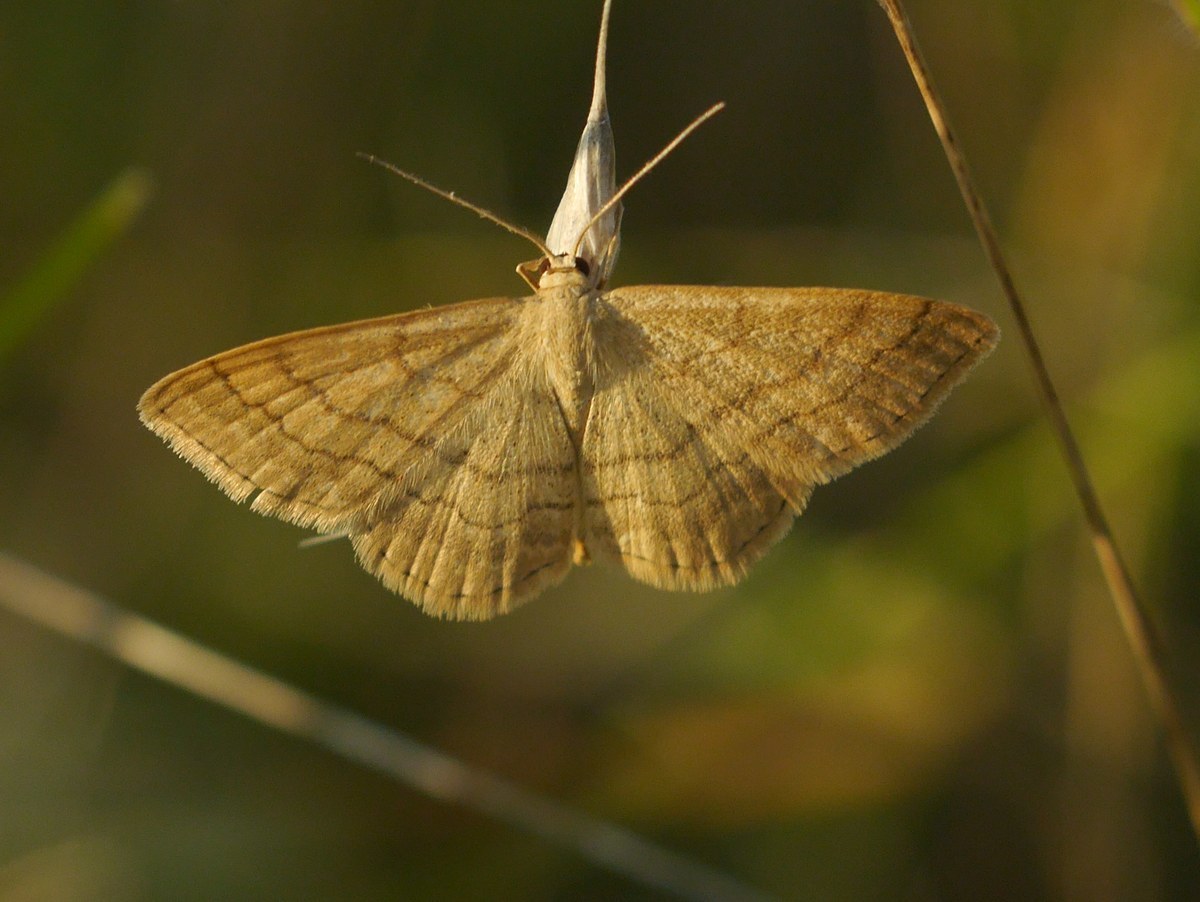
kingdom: Animalia
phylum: Arthropoda
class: Insecta
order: Lepidoptera
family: Geometridae
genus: Scopula
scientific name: Scopula rubiginata
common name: Tawny wave
